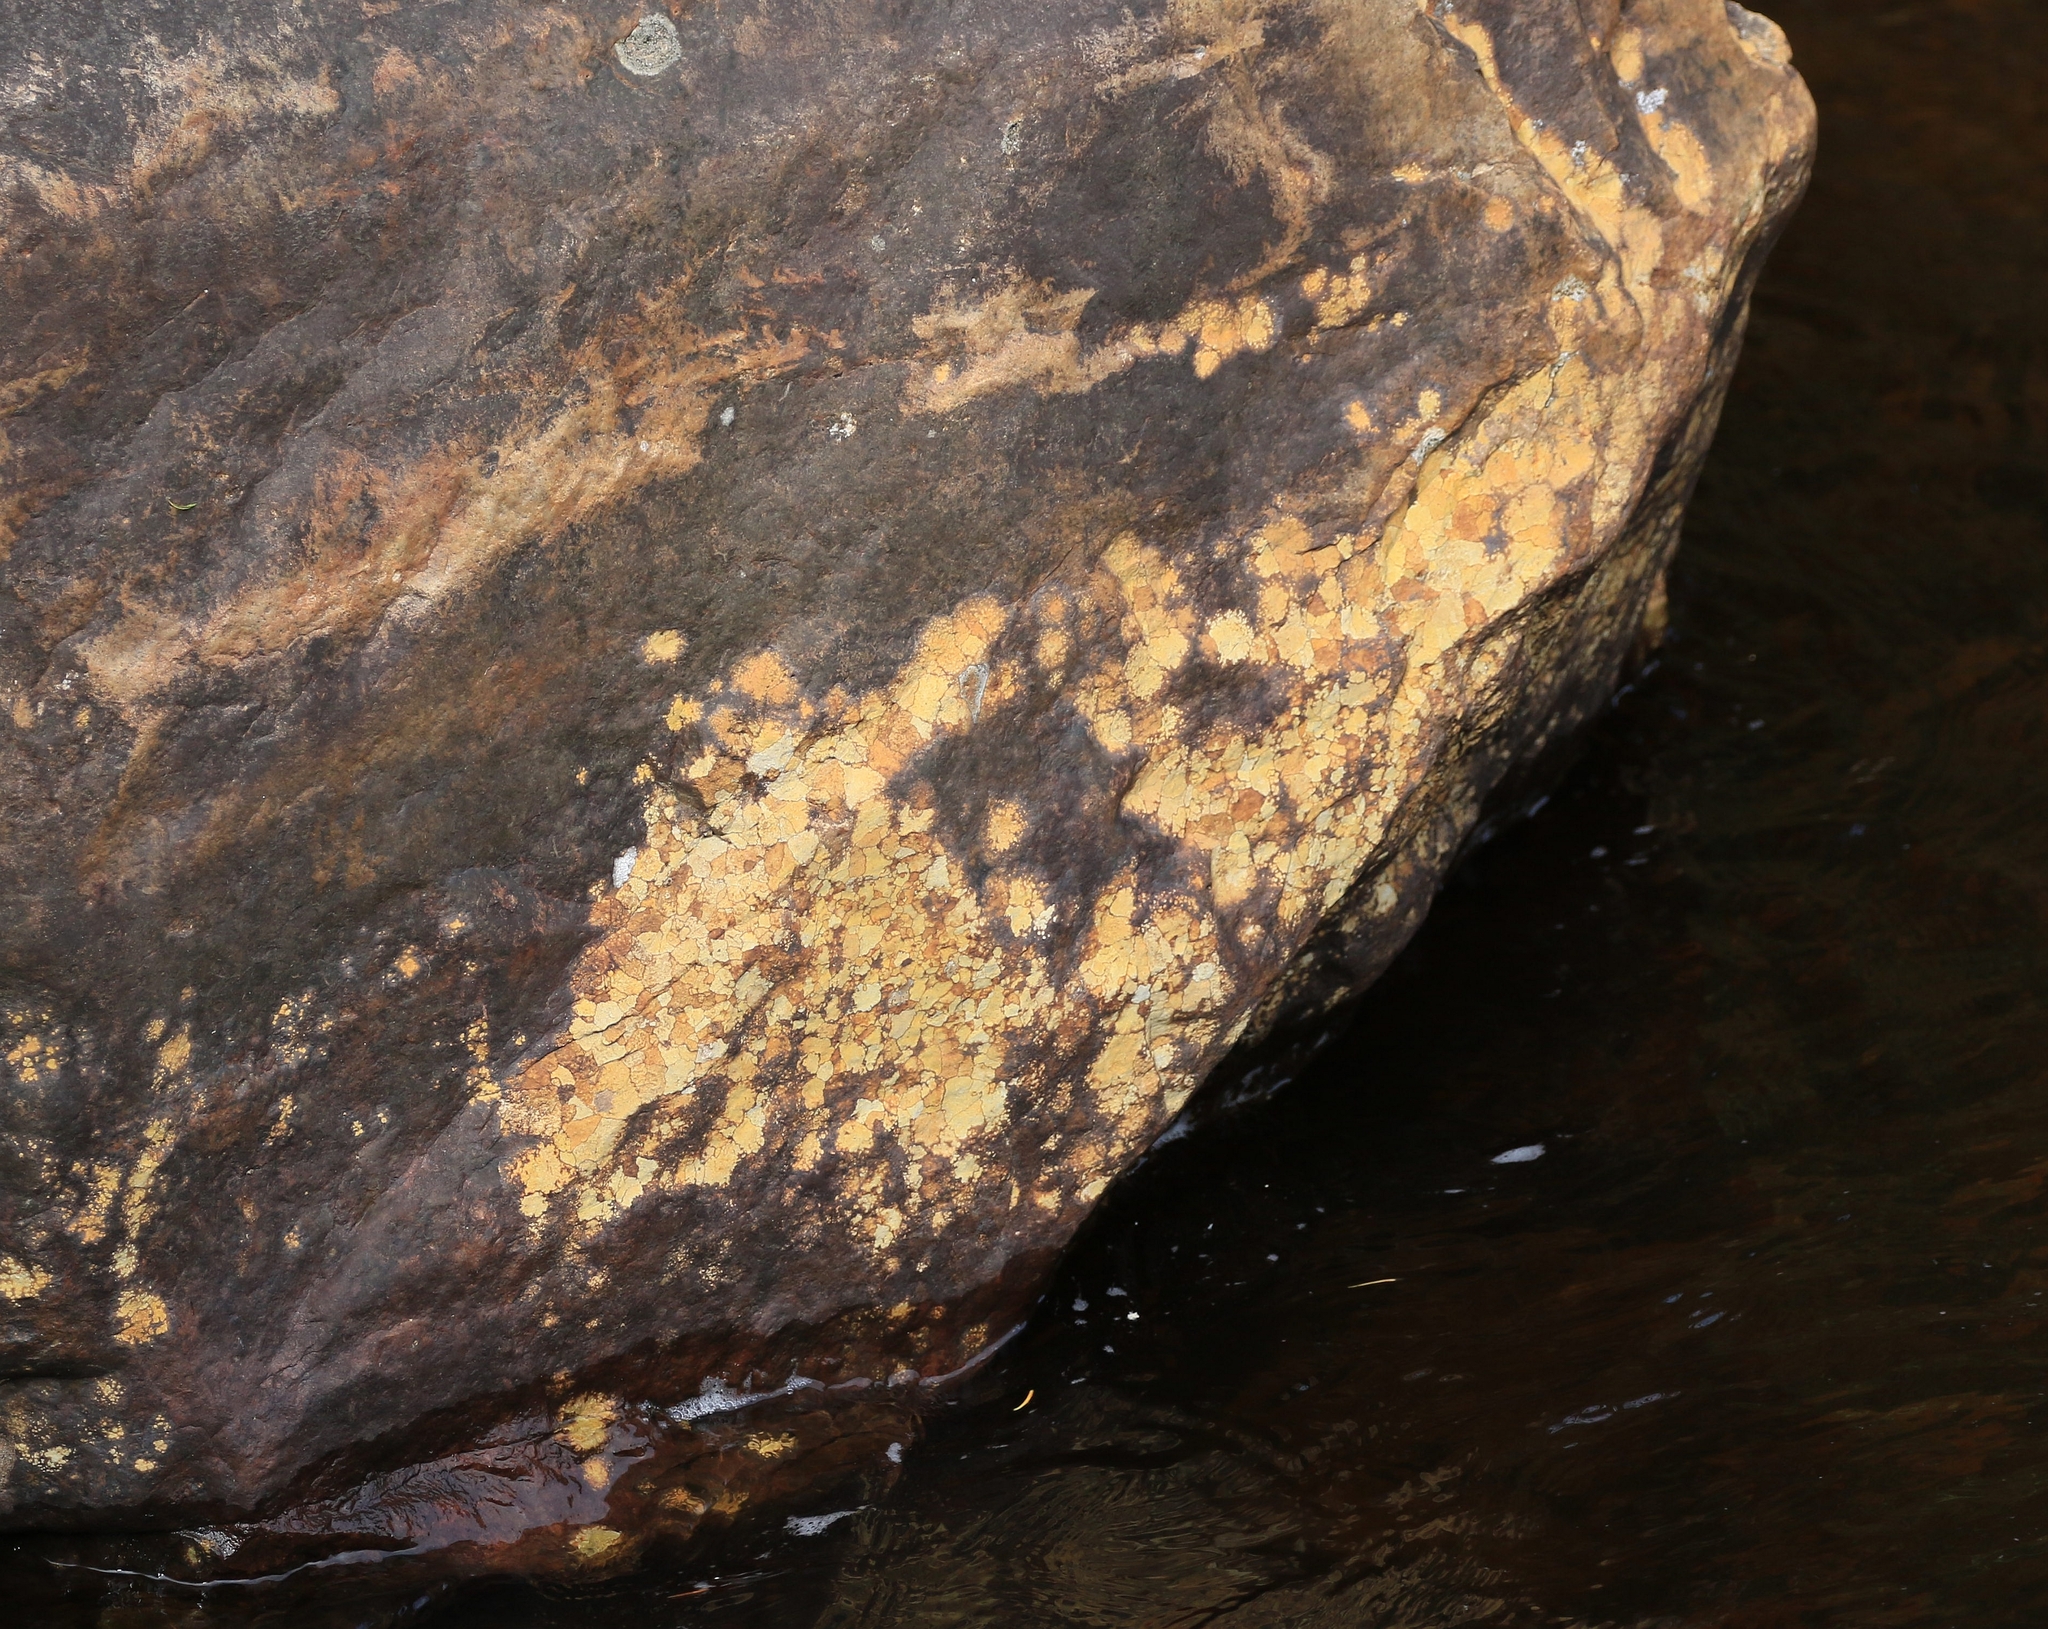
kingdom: Fungi
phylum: Ascomycota
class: Lecanoromycetes
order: Hymeneliales
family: Hymeneliaceae
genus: Ionaspis
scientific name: Ionaspis lacustris
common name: Rusty brook lichen
